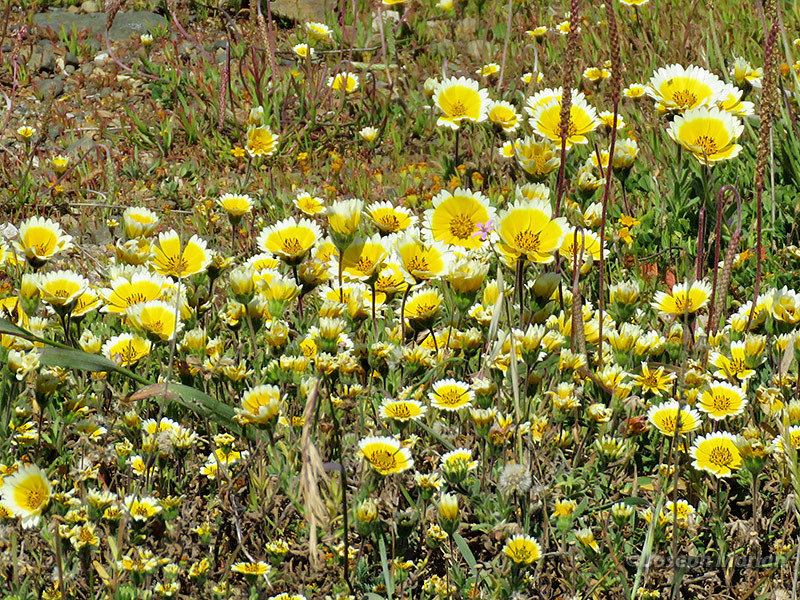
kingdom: Plantae
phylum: Tracheophyta
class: Magnoliopsida
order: Asterales
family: Asteraceae
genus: Layia
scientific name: Layia platyglossa
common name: Tidy-tips
